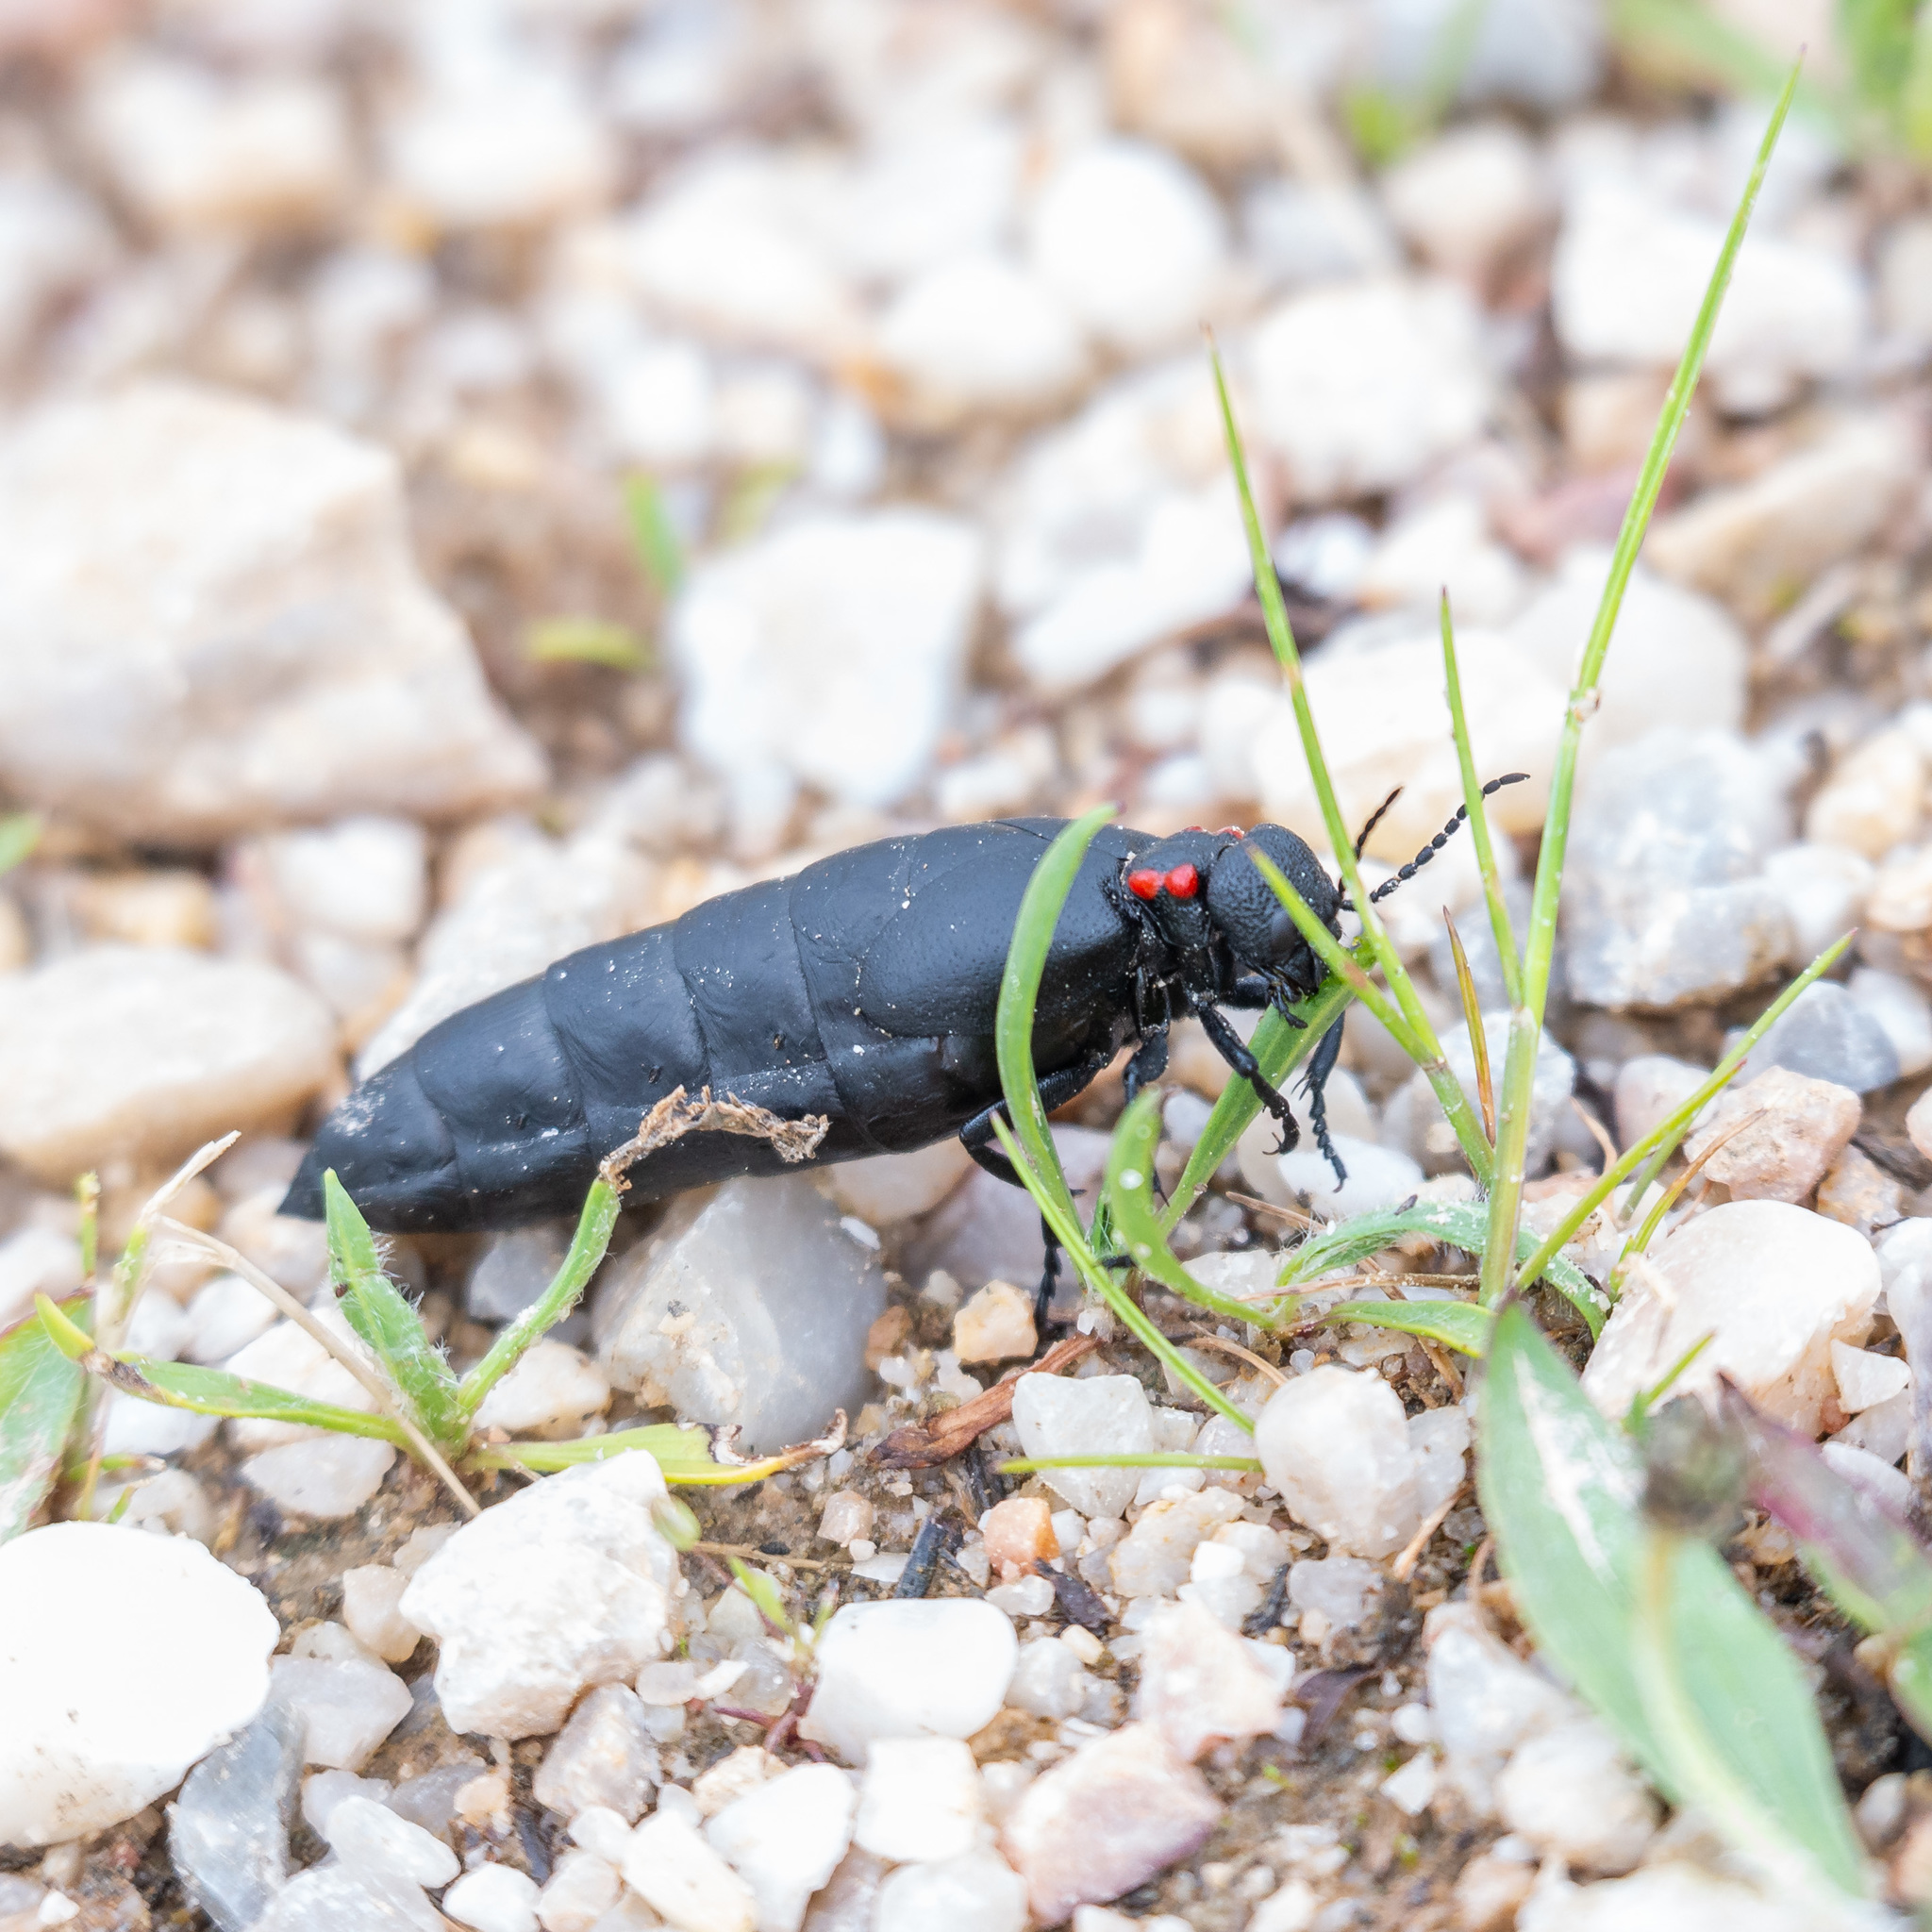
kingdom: Animalia
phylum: Arthropoda
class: Insecta
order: Coleoptera
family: Meloidae
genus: Physomeloe
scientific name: Physomeloe corallifer
